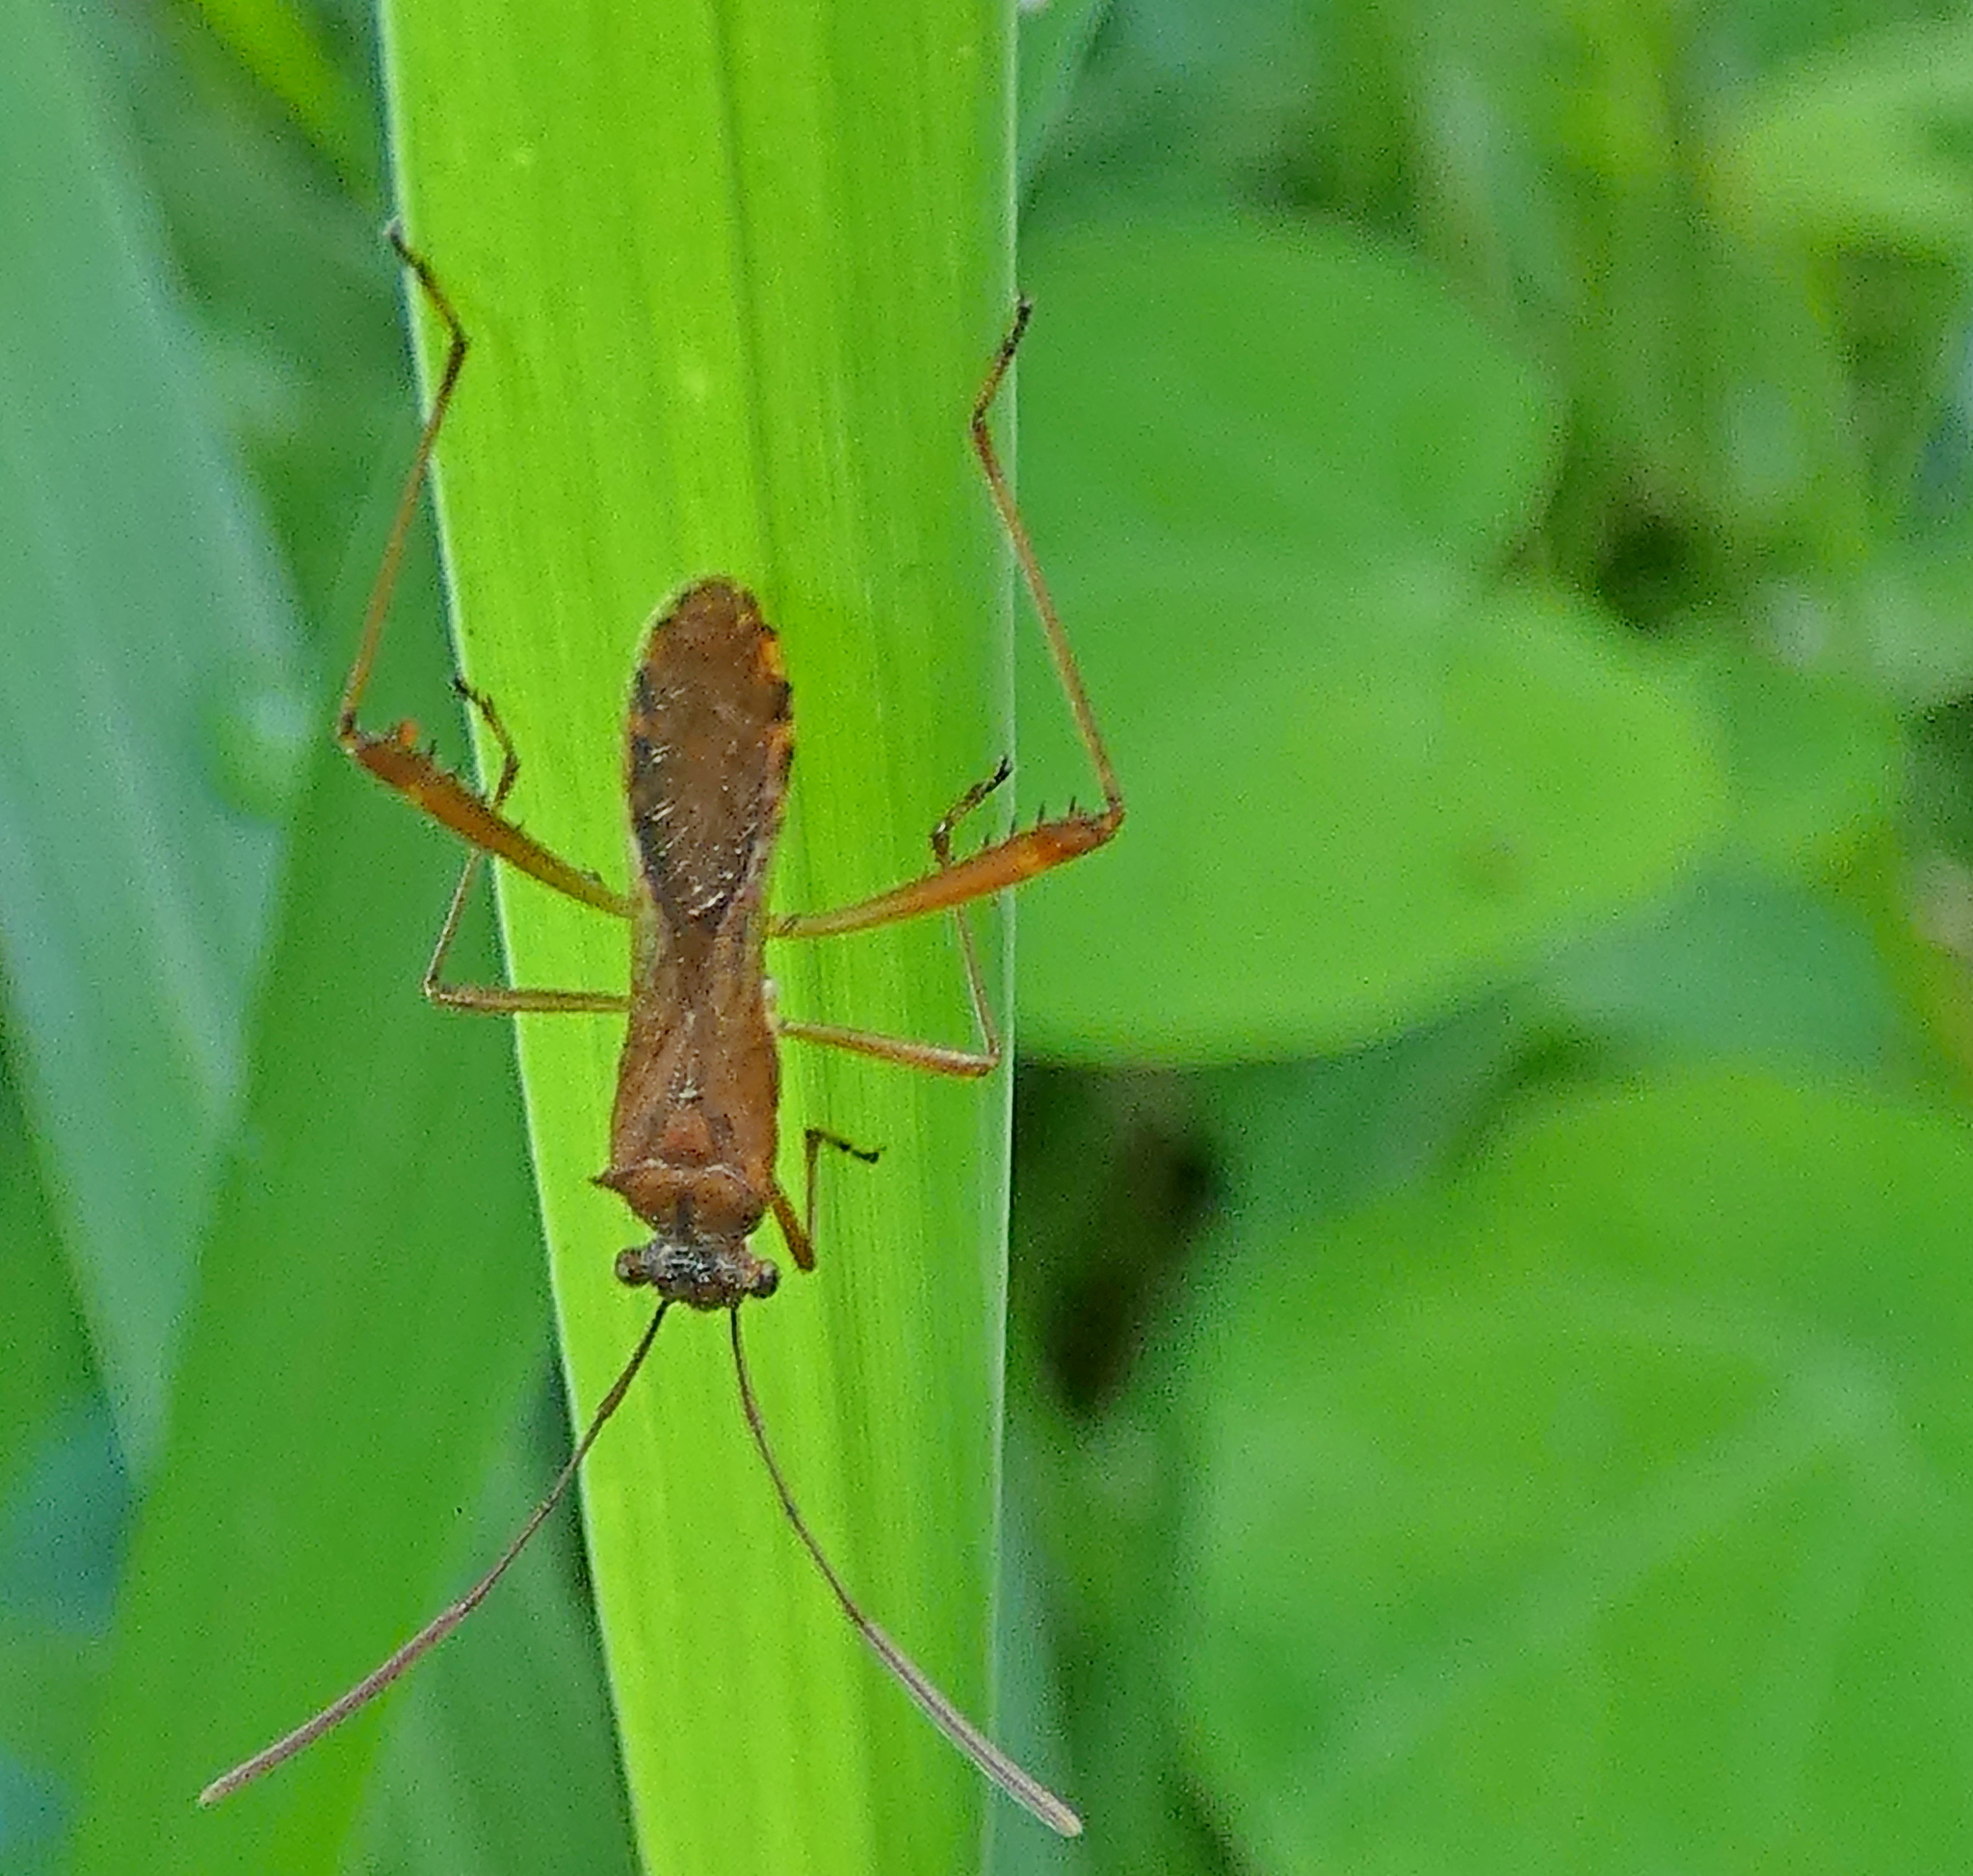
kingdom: Animalia
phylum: Arthropoda
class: Insecta
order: Hemiptera
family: Alydidae
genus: Neomegalotomus
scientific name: Neomegalotomus parvus
